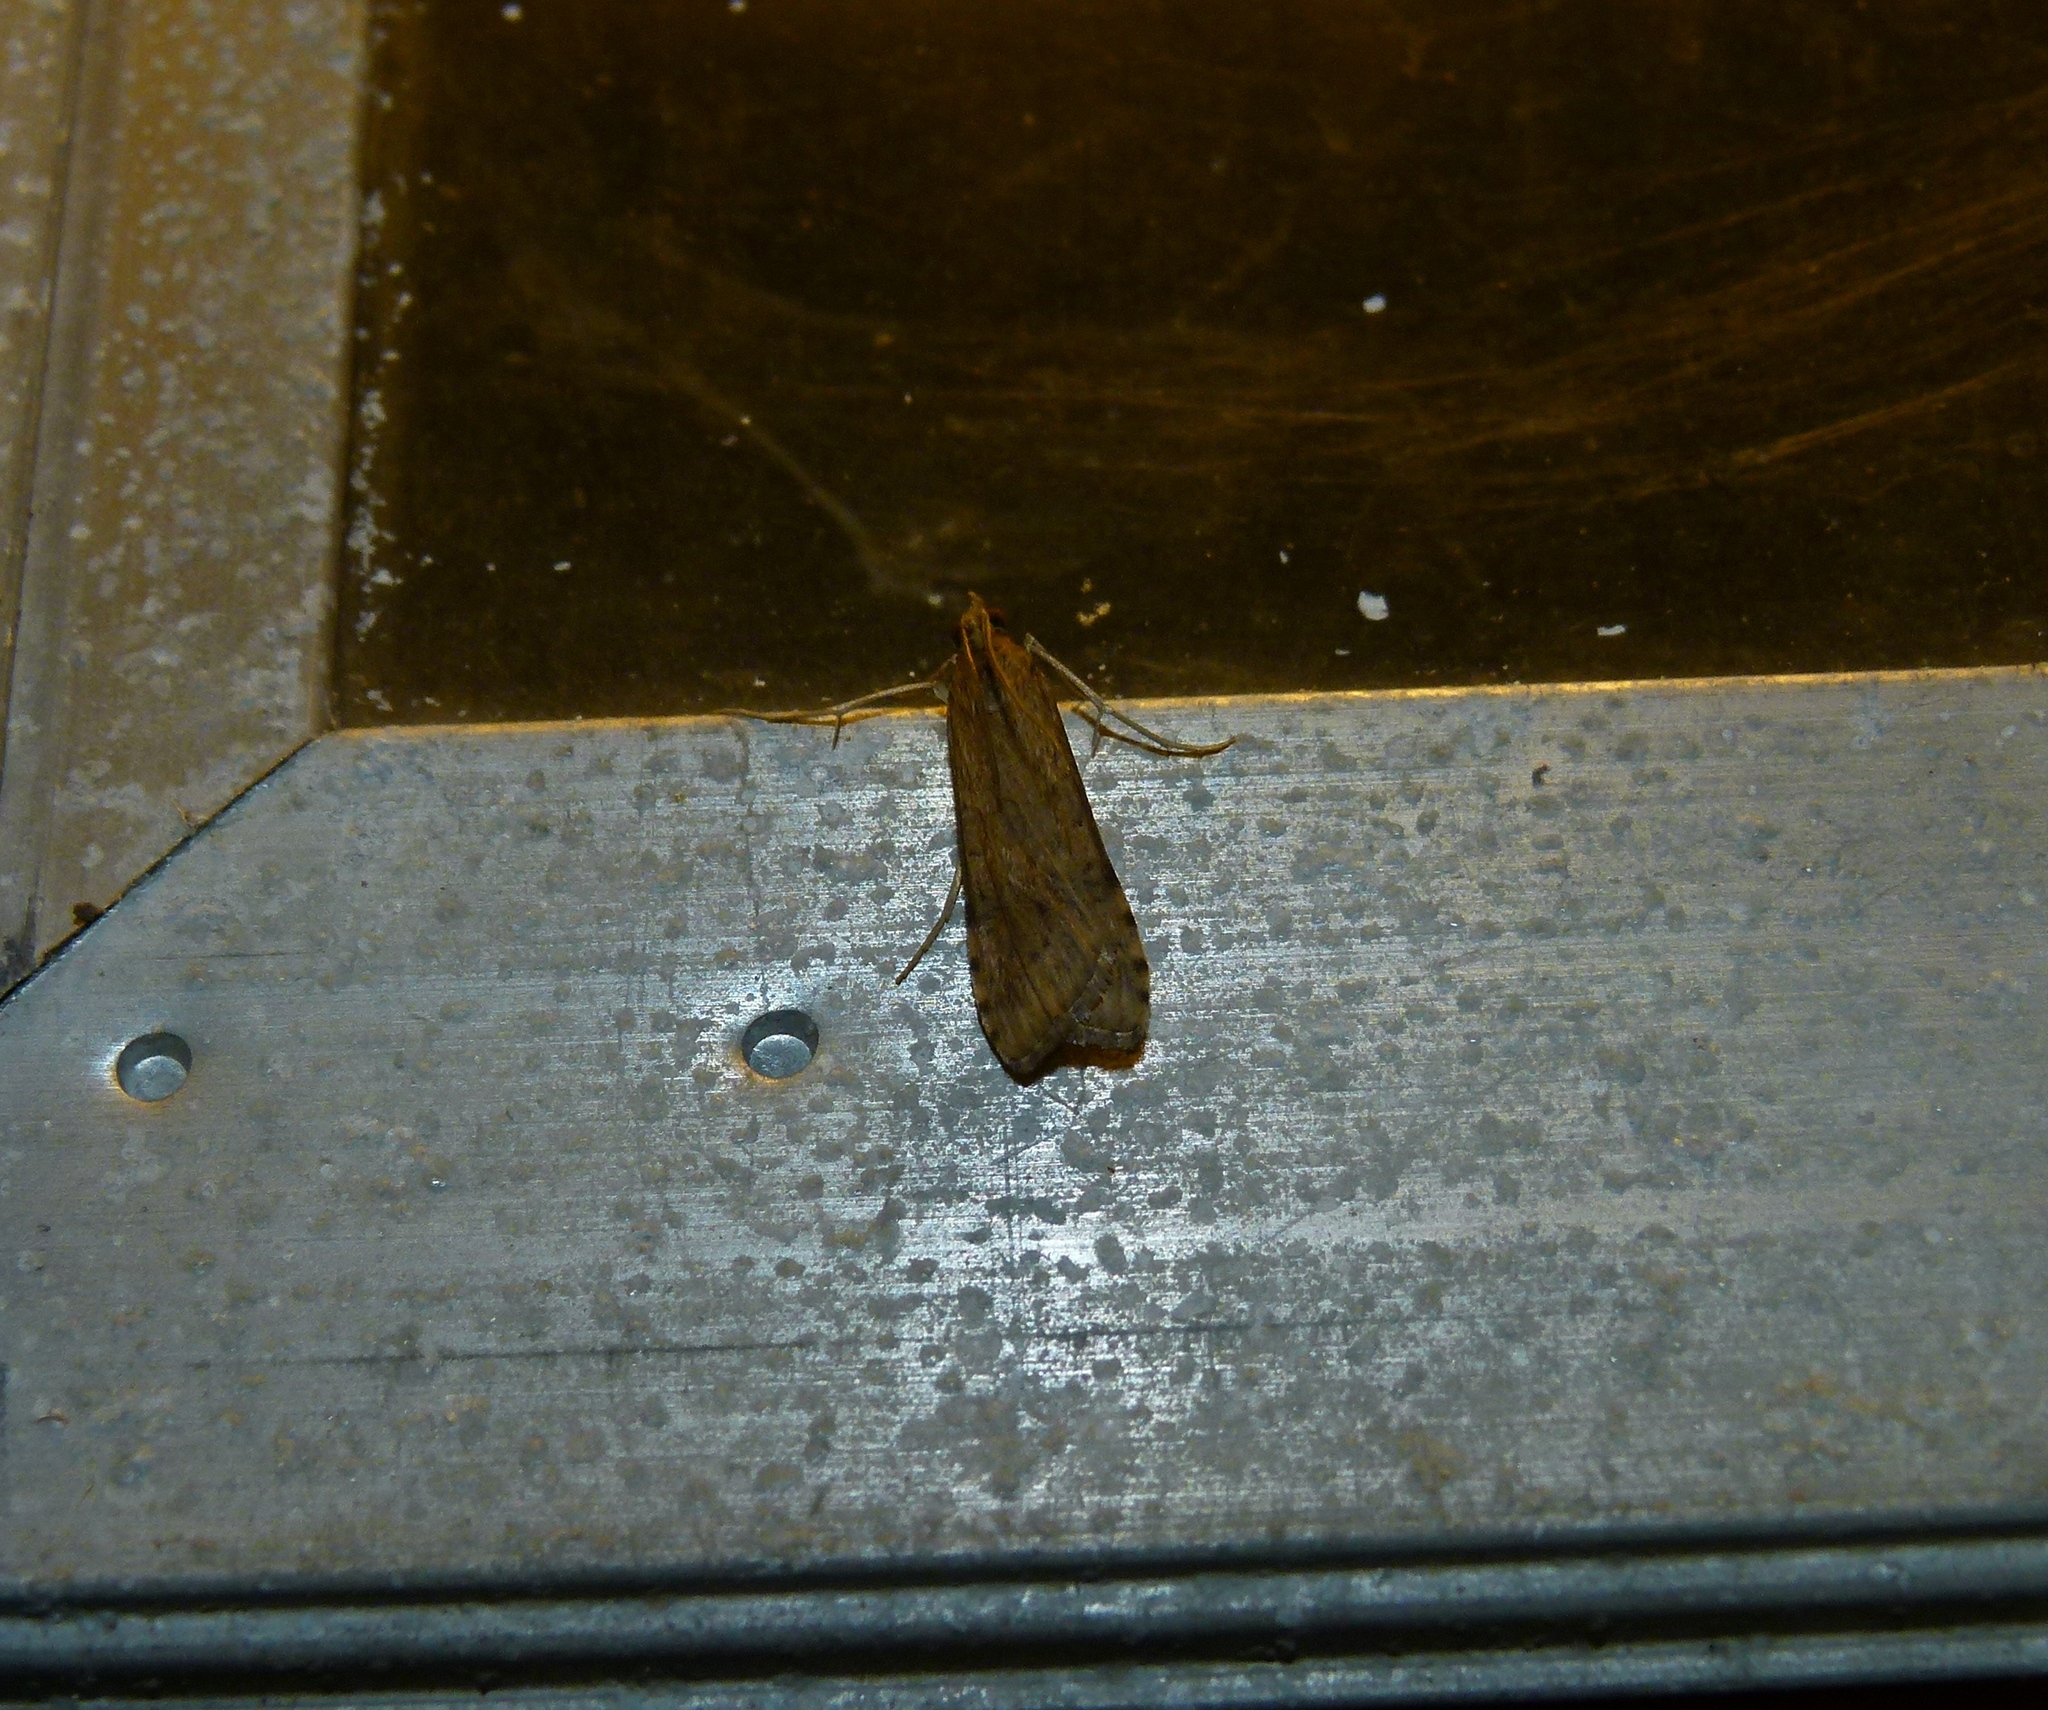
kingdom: Animalia
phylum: Arthropoda
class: Insecta
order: Lepidoptera
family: Crambidae
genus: Nomophila
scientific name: Nomophila nearctica
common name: American rush veneer
